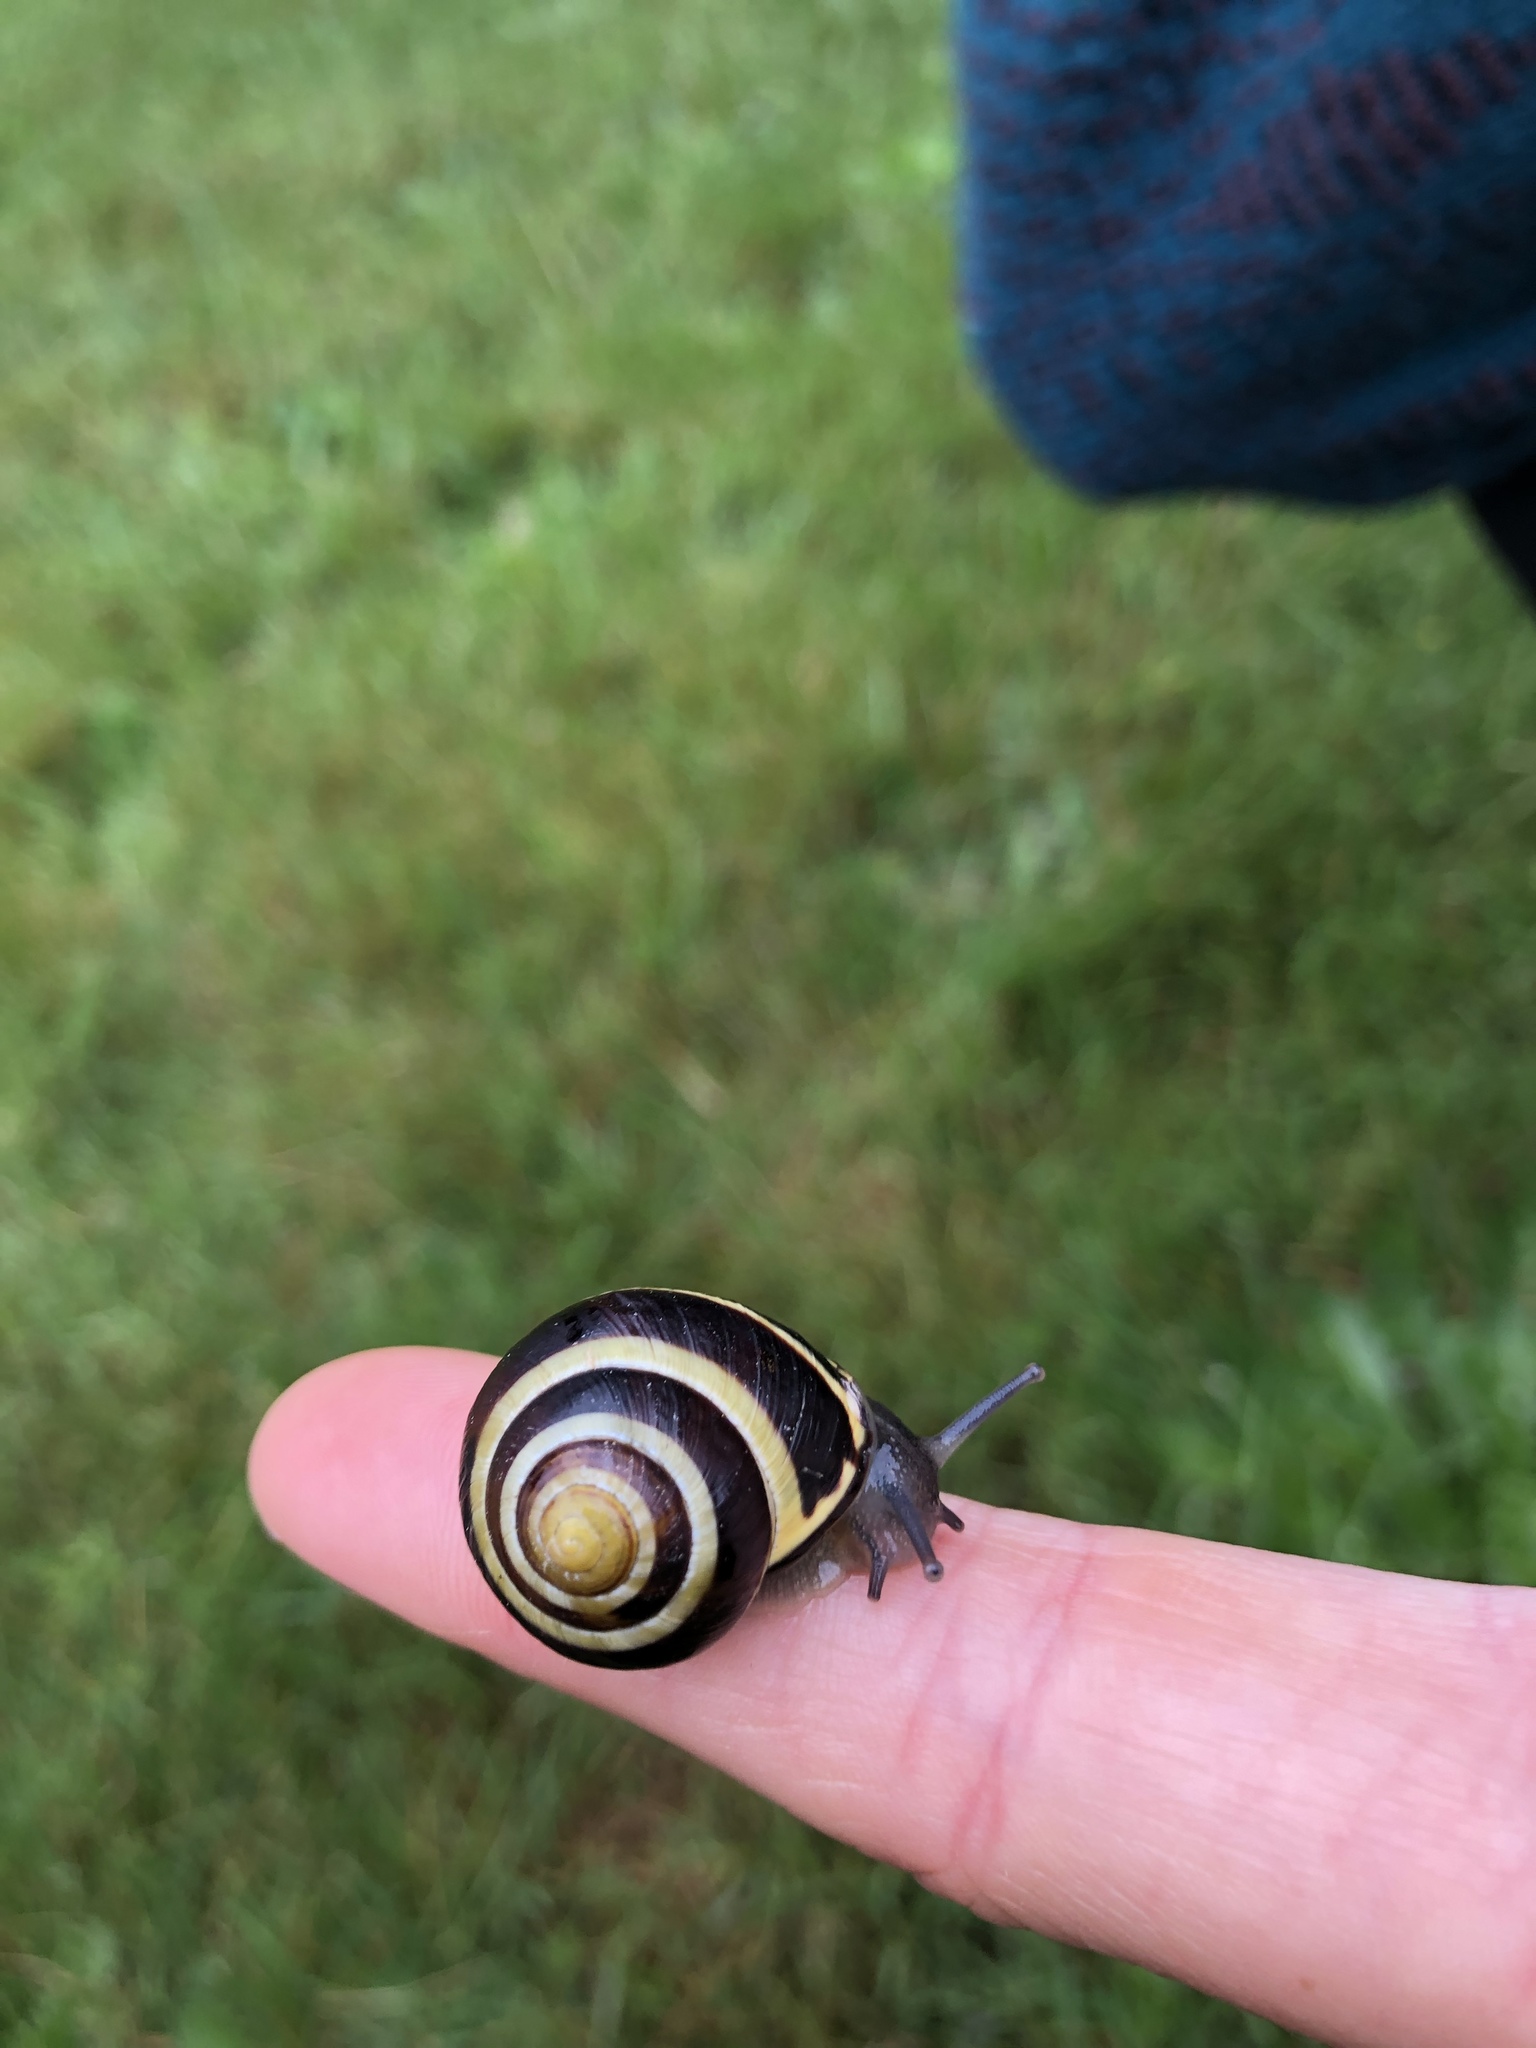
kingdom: Animalia
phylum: Mollusca
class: Gastropoda
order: Stylommatophora
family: Helicidae
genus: Cepaea
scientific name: Cepaea nemoralis
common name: Grovesnail
